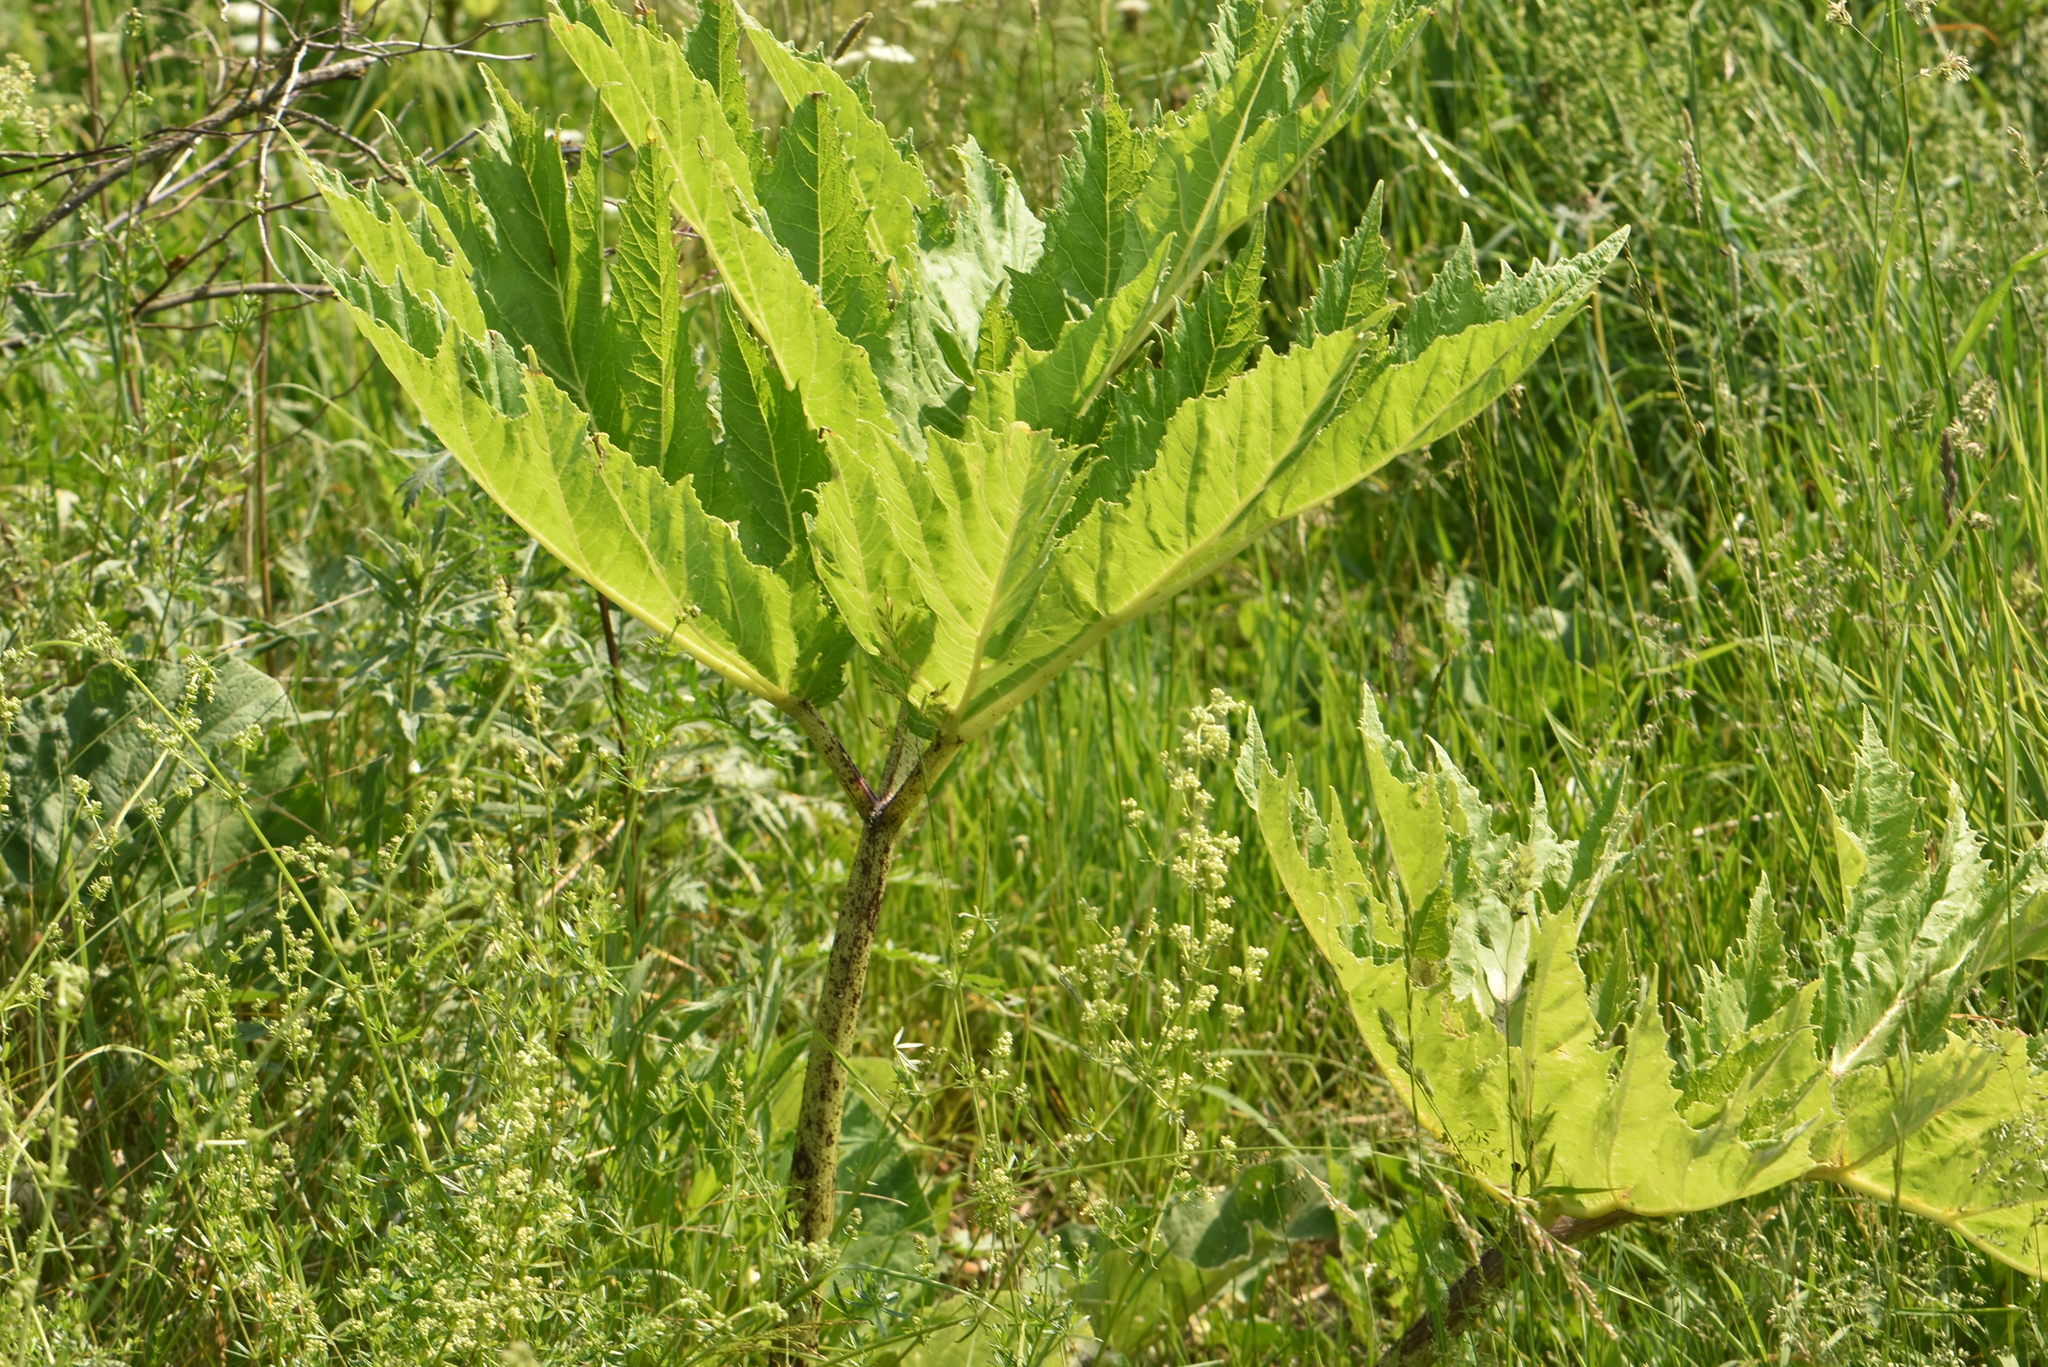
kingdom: Plantae
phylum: Tracheophyta
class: Magnoliopsida
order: Apiales
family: Apiaceae
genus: Heracleum
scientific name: Heracleum sosnowskyi
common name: Sosnowsky's hogweed
